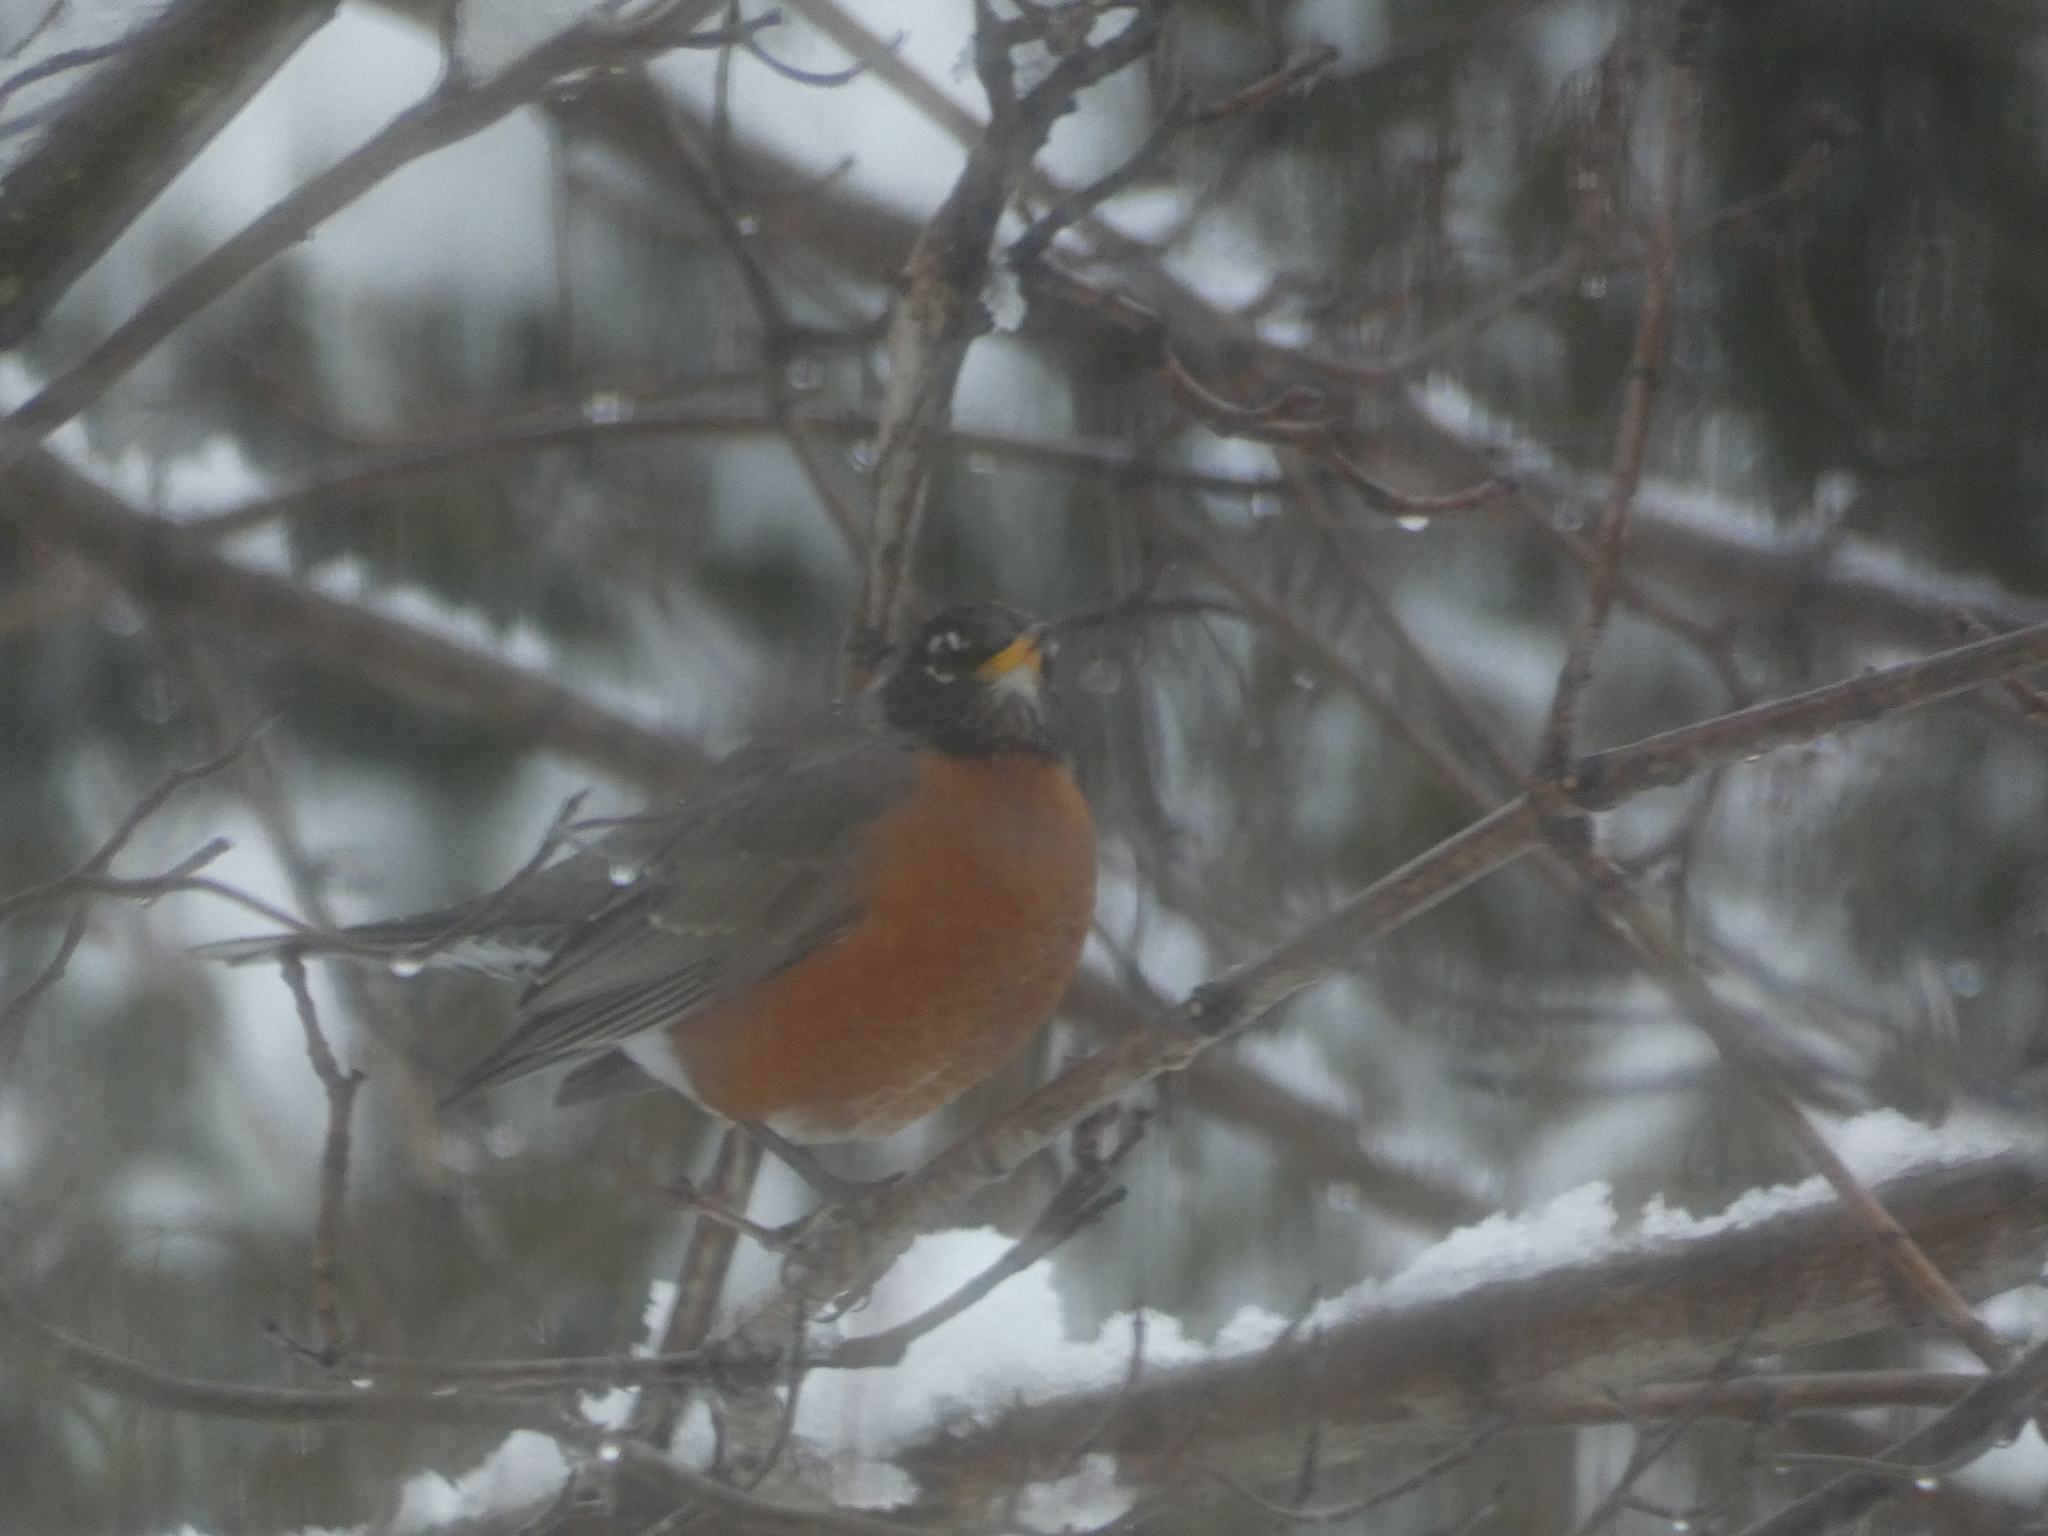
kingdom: Animalia
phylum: Chordata
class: Aves
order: Passeriformes
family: Turdidae
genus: Turdus
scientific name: Turdus migratorius
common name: American robin
